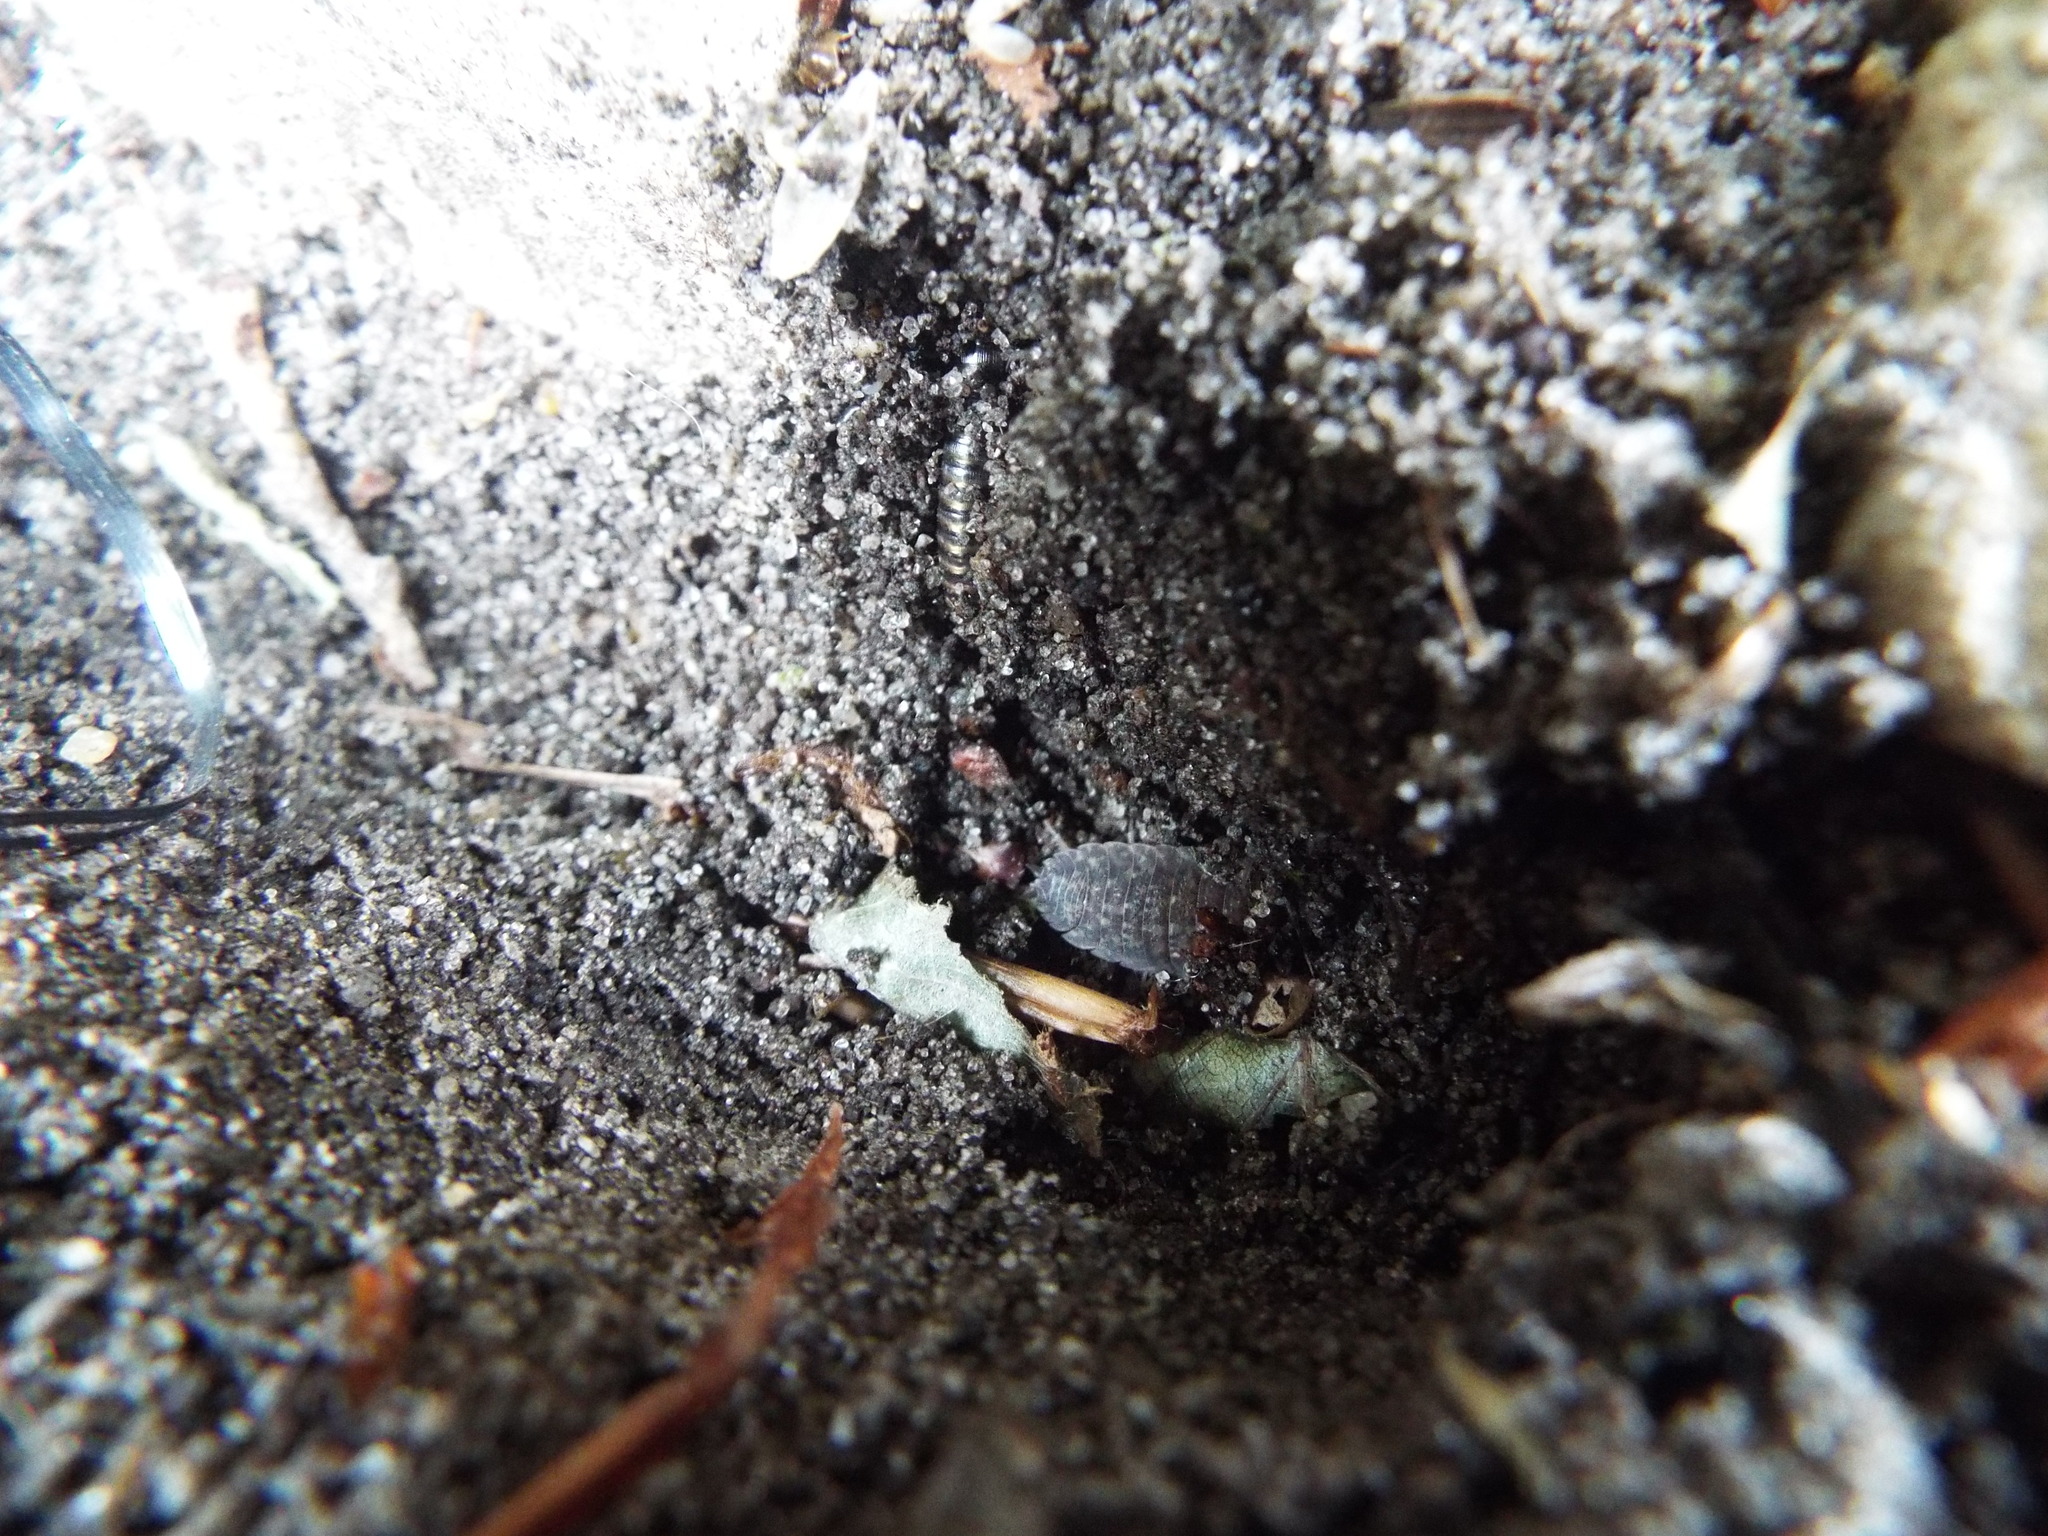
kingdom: Animalia
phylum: Arthropoda
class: Malacostraca
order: Isopoda
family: Porcellionidae
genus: Porcellio
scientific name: Porcellio scaber
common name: Common rough woodlouse
